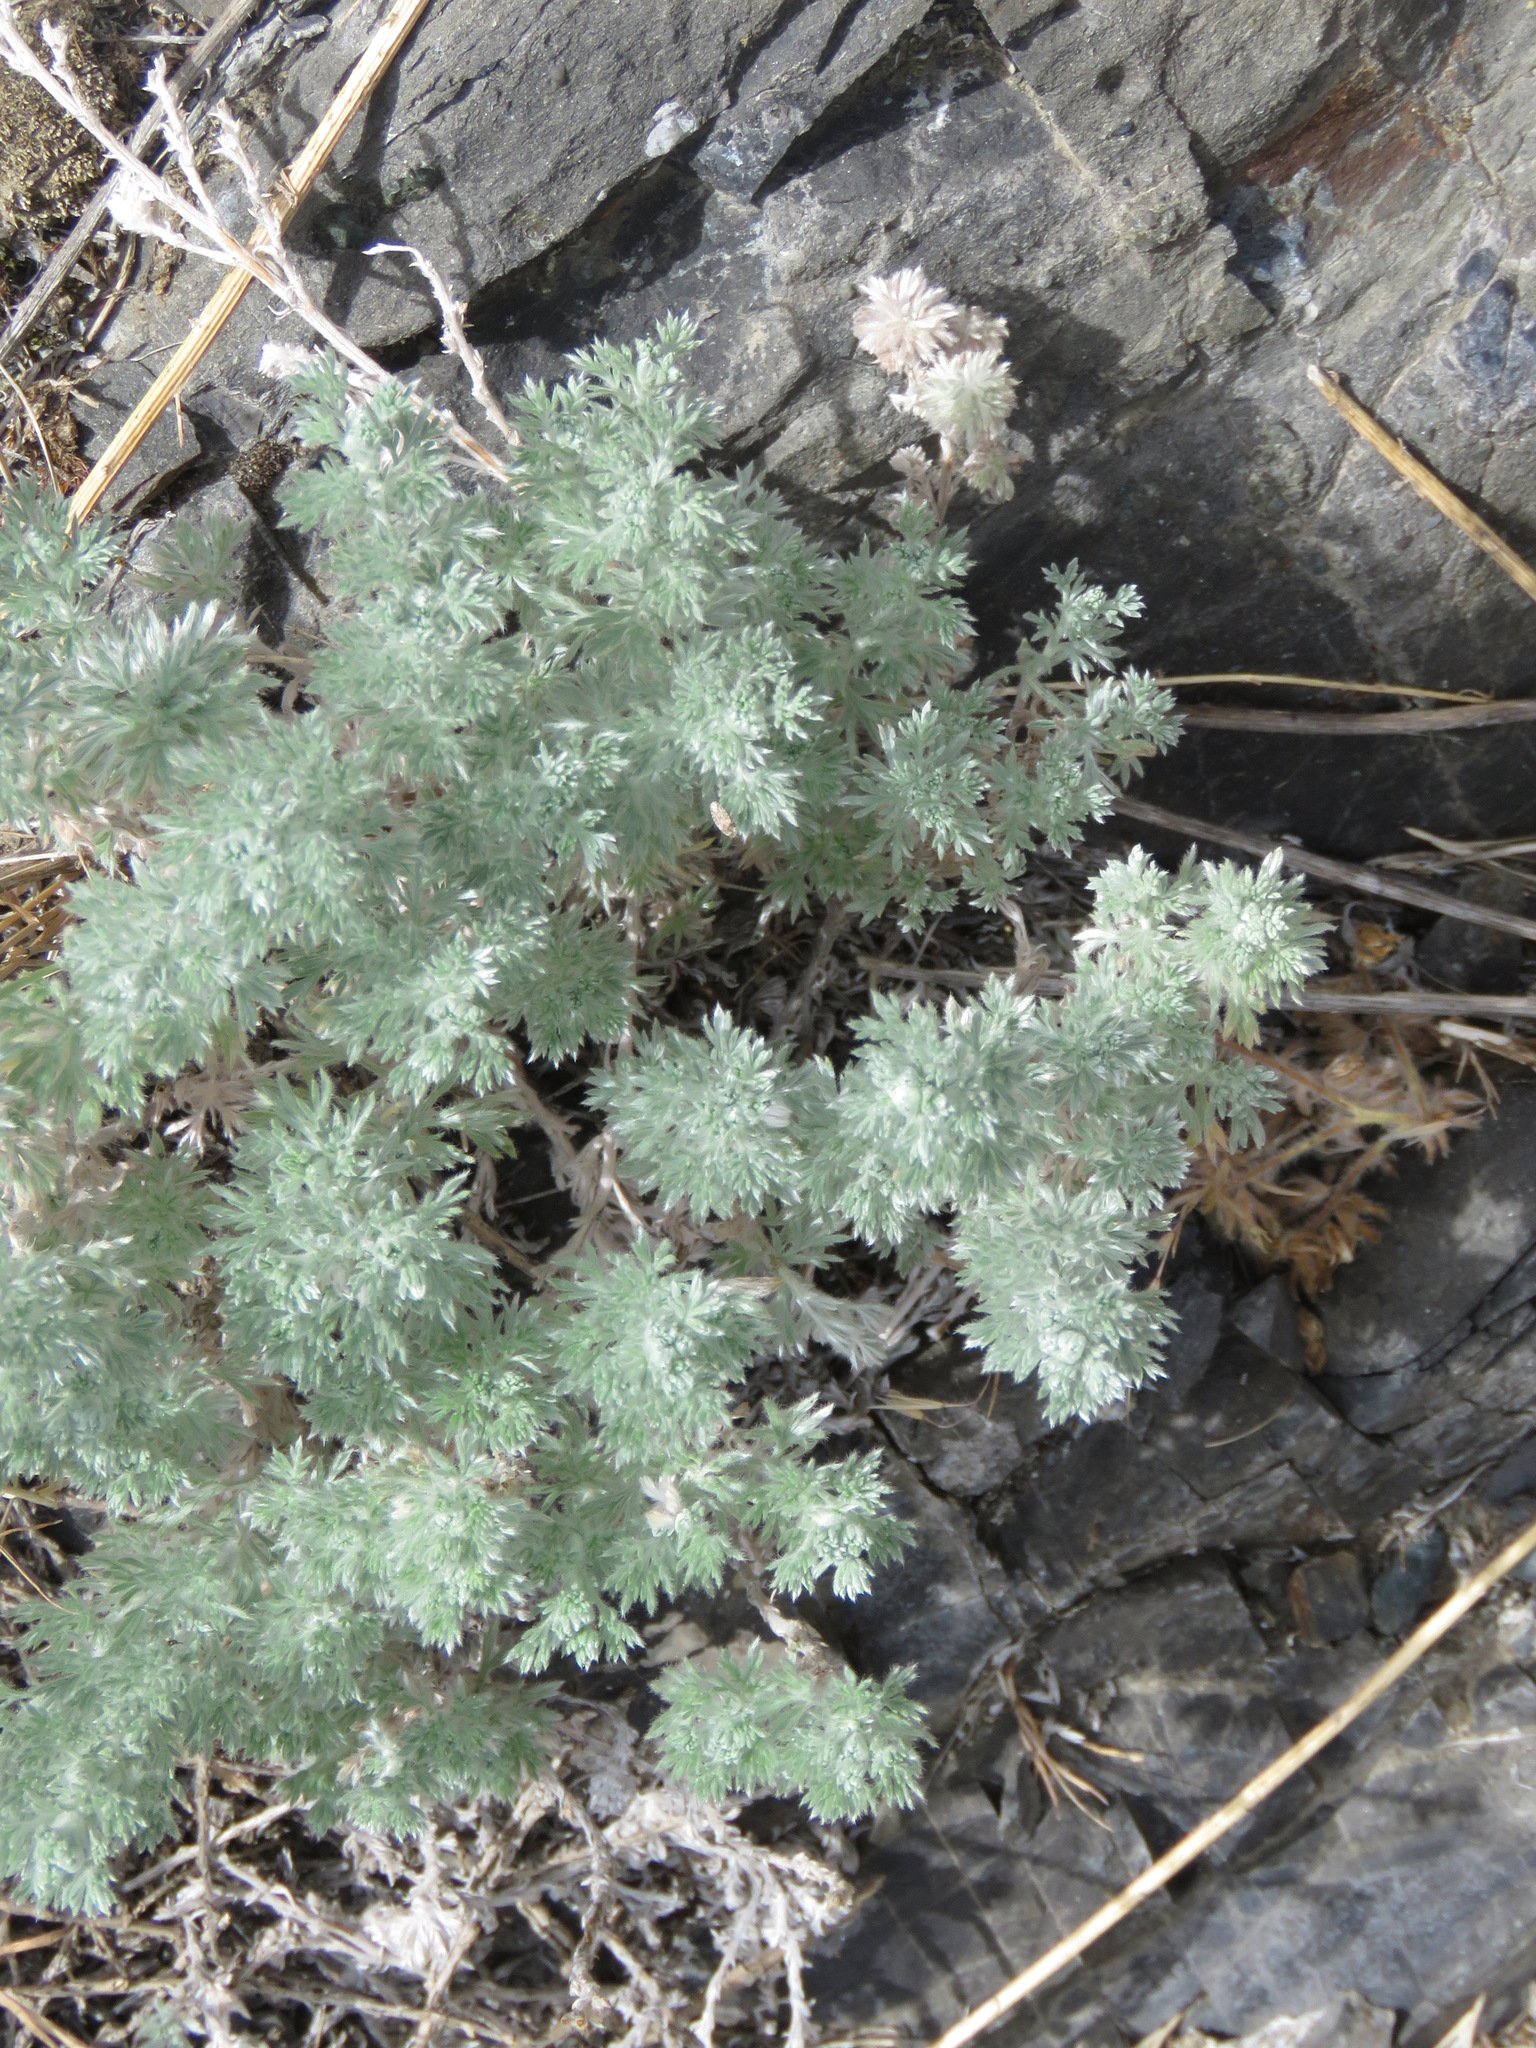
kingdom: Plantae
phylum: Tracheophyta
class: Magnoliopsida
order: Asterales
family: Asteraceae
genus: Artemisia
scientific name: Artemisia frigida
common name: Prairie sagewort
